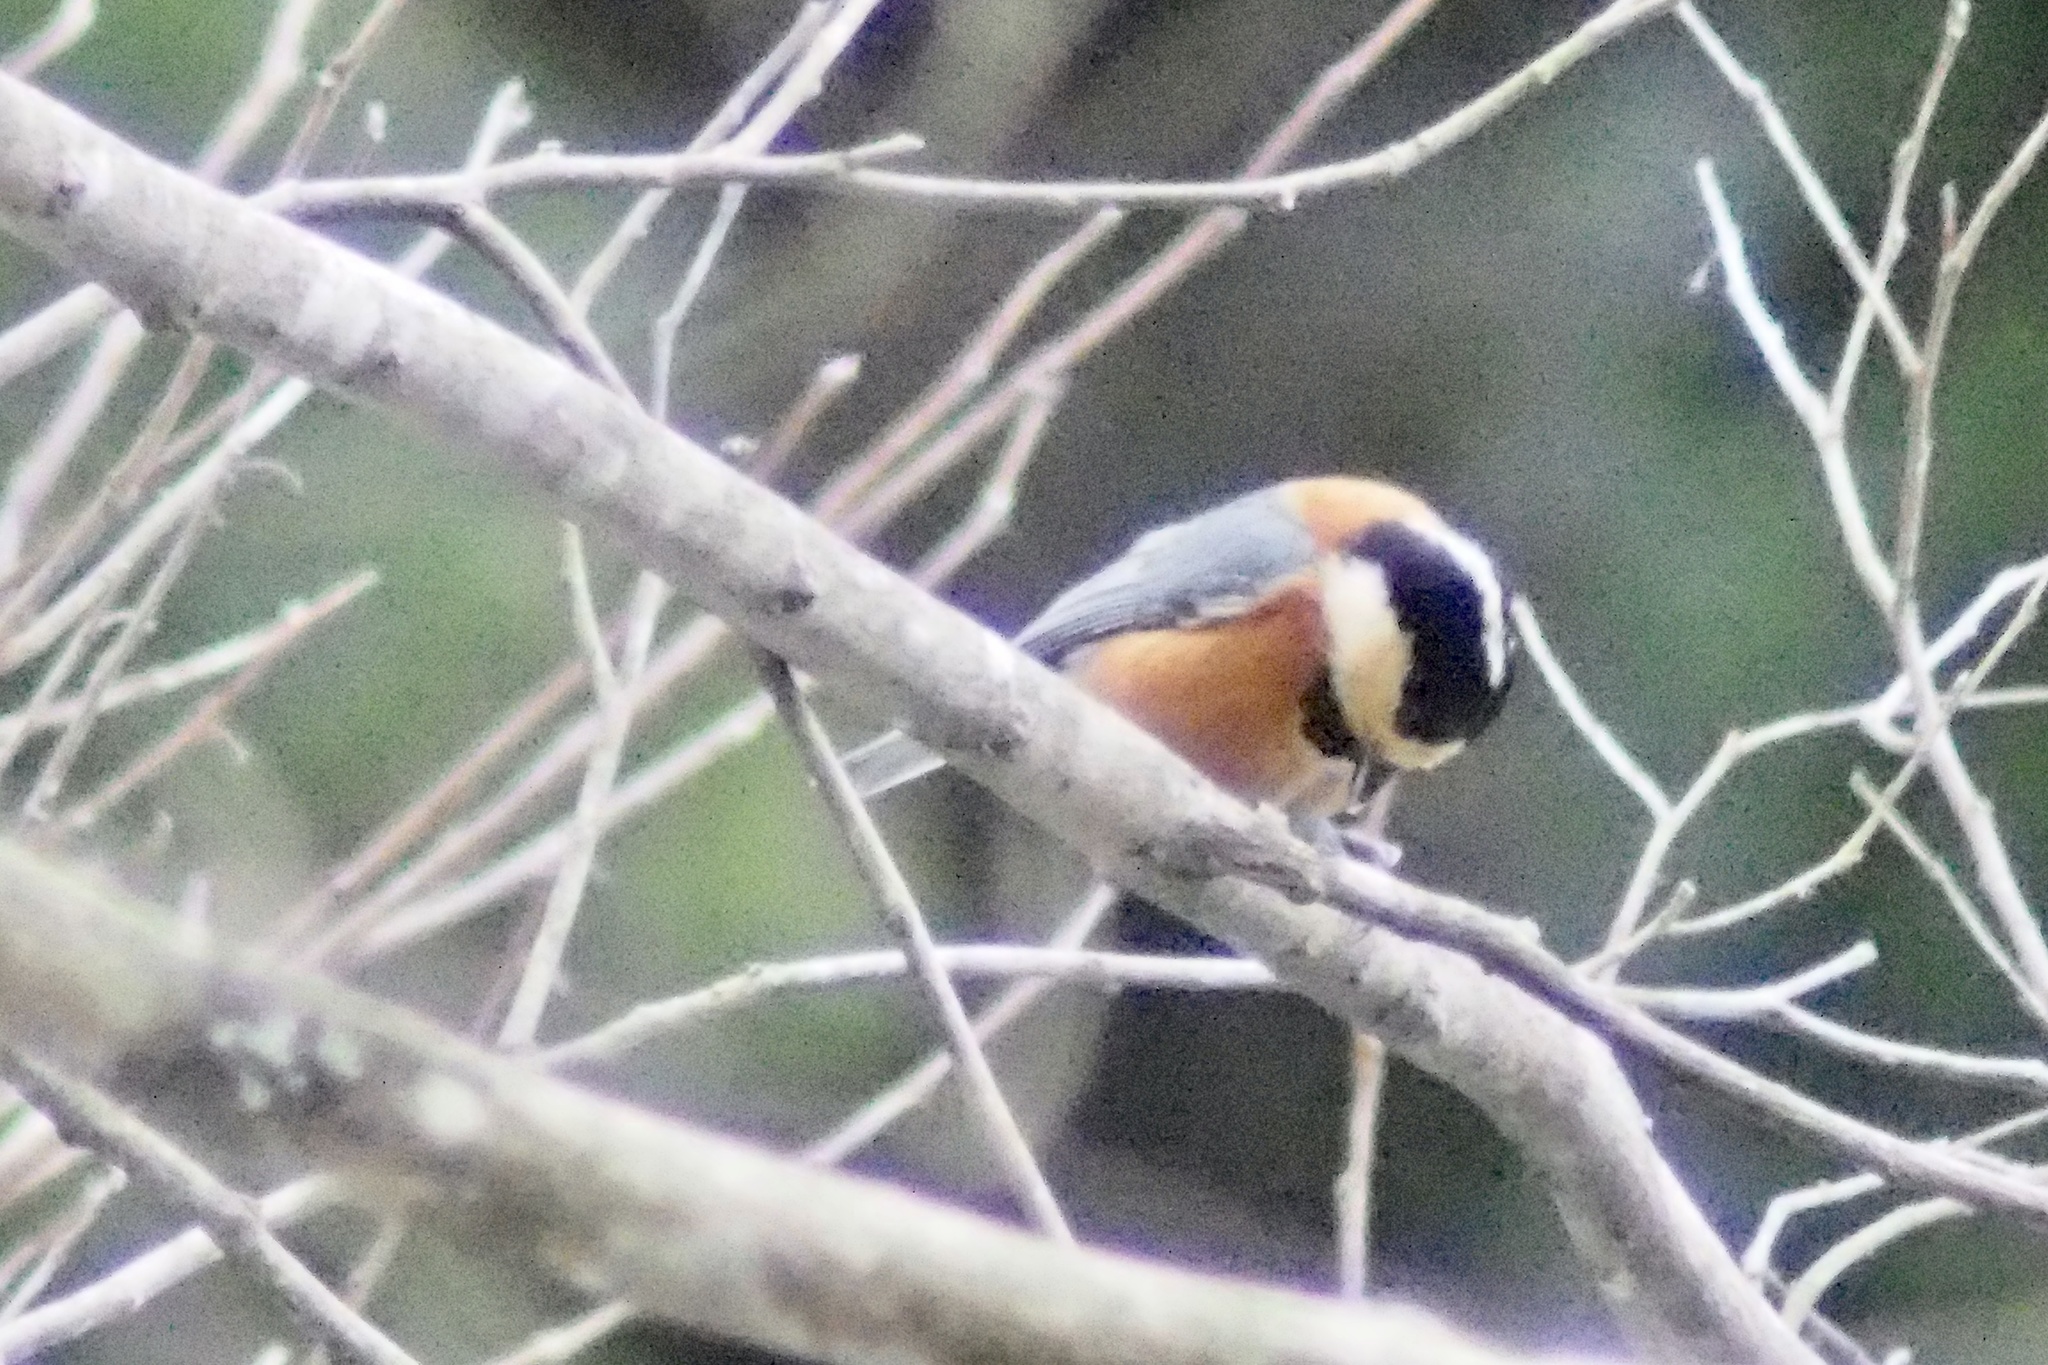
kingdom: Animalia
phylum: Chordata
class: Aves
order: Passeriformes
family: Paridae
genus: Poecile
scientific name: Poecile varius
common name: Varied tit
